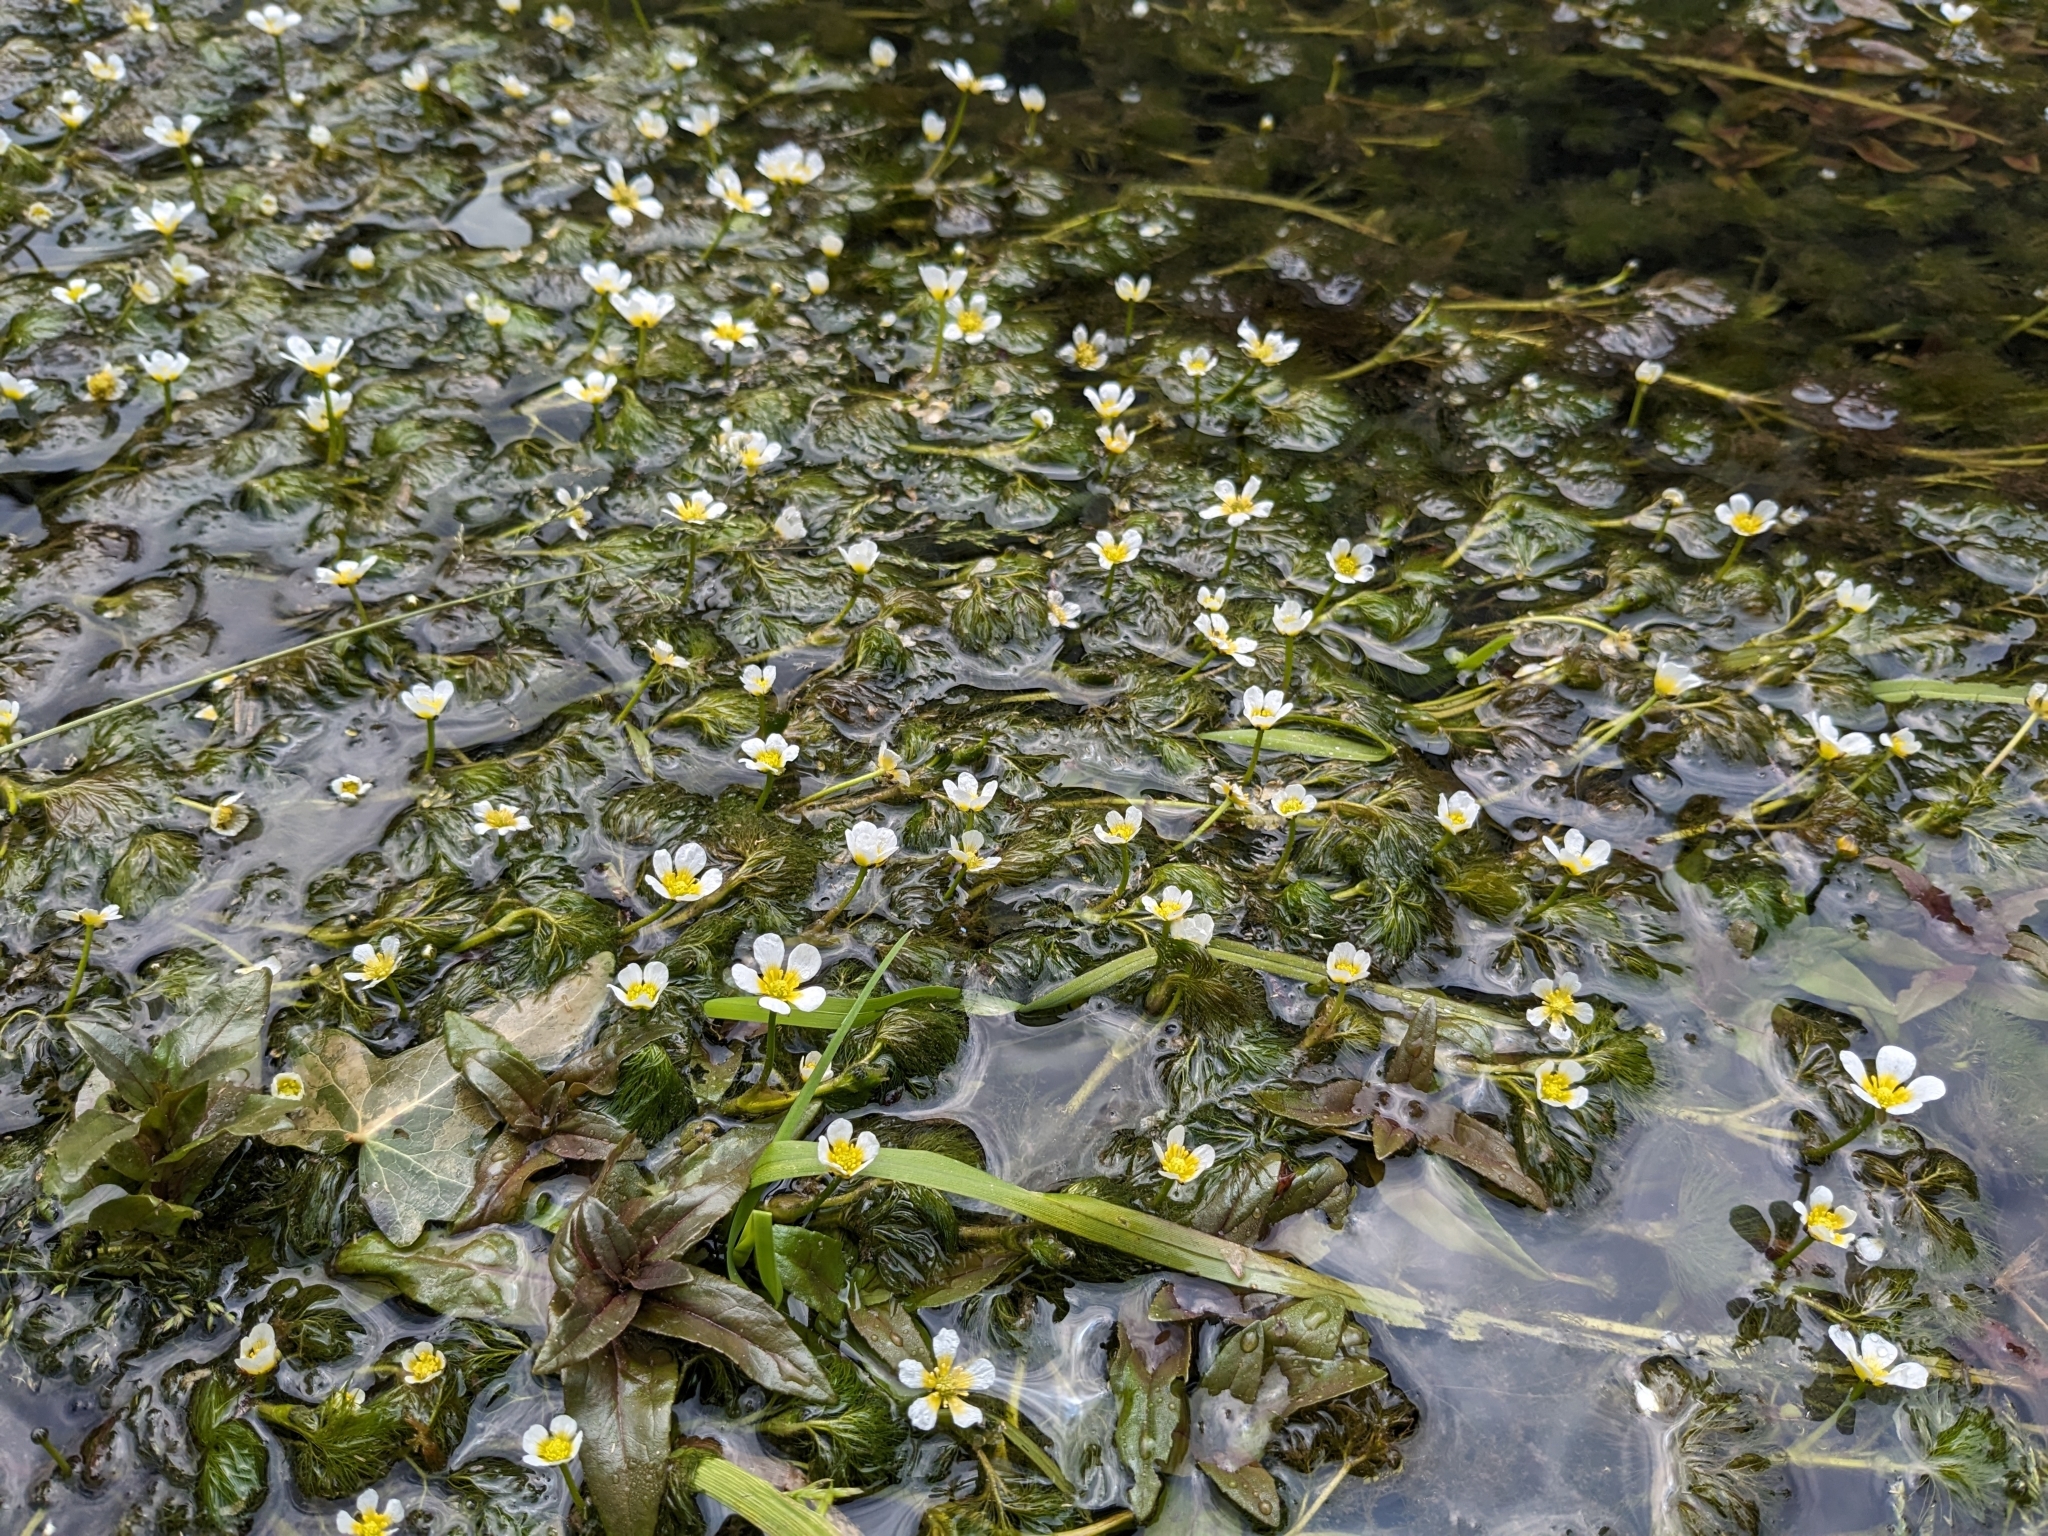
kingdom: Plantae
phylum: Tracheophyta
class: Magnoliopsida
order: Ranunculales
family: Ranunculaceae
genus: Ranunculus
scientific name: Ranunculus trichophyllus
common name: Thread-leaved water-crowfoot
